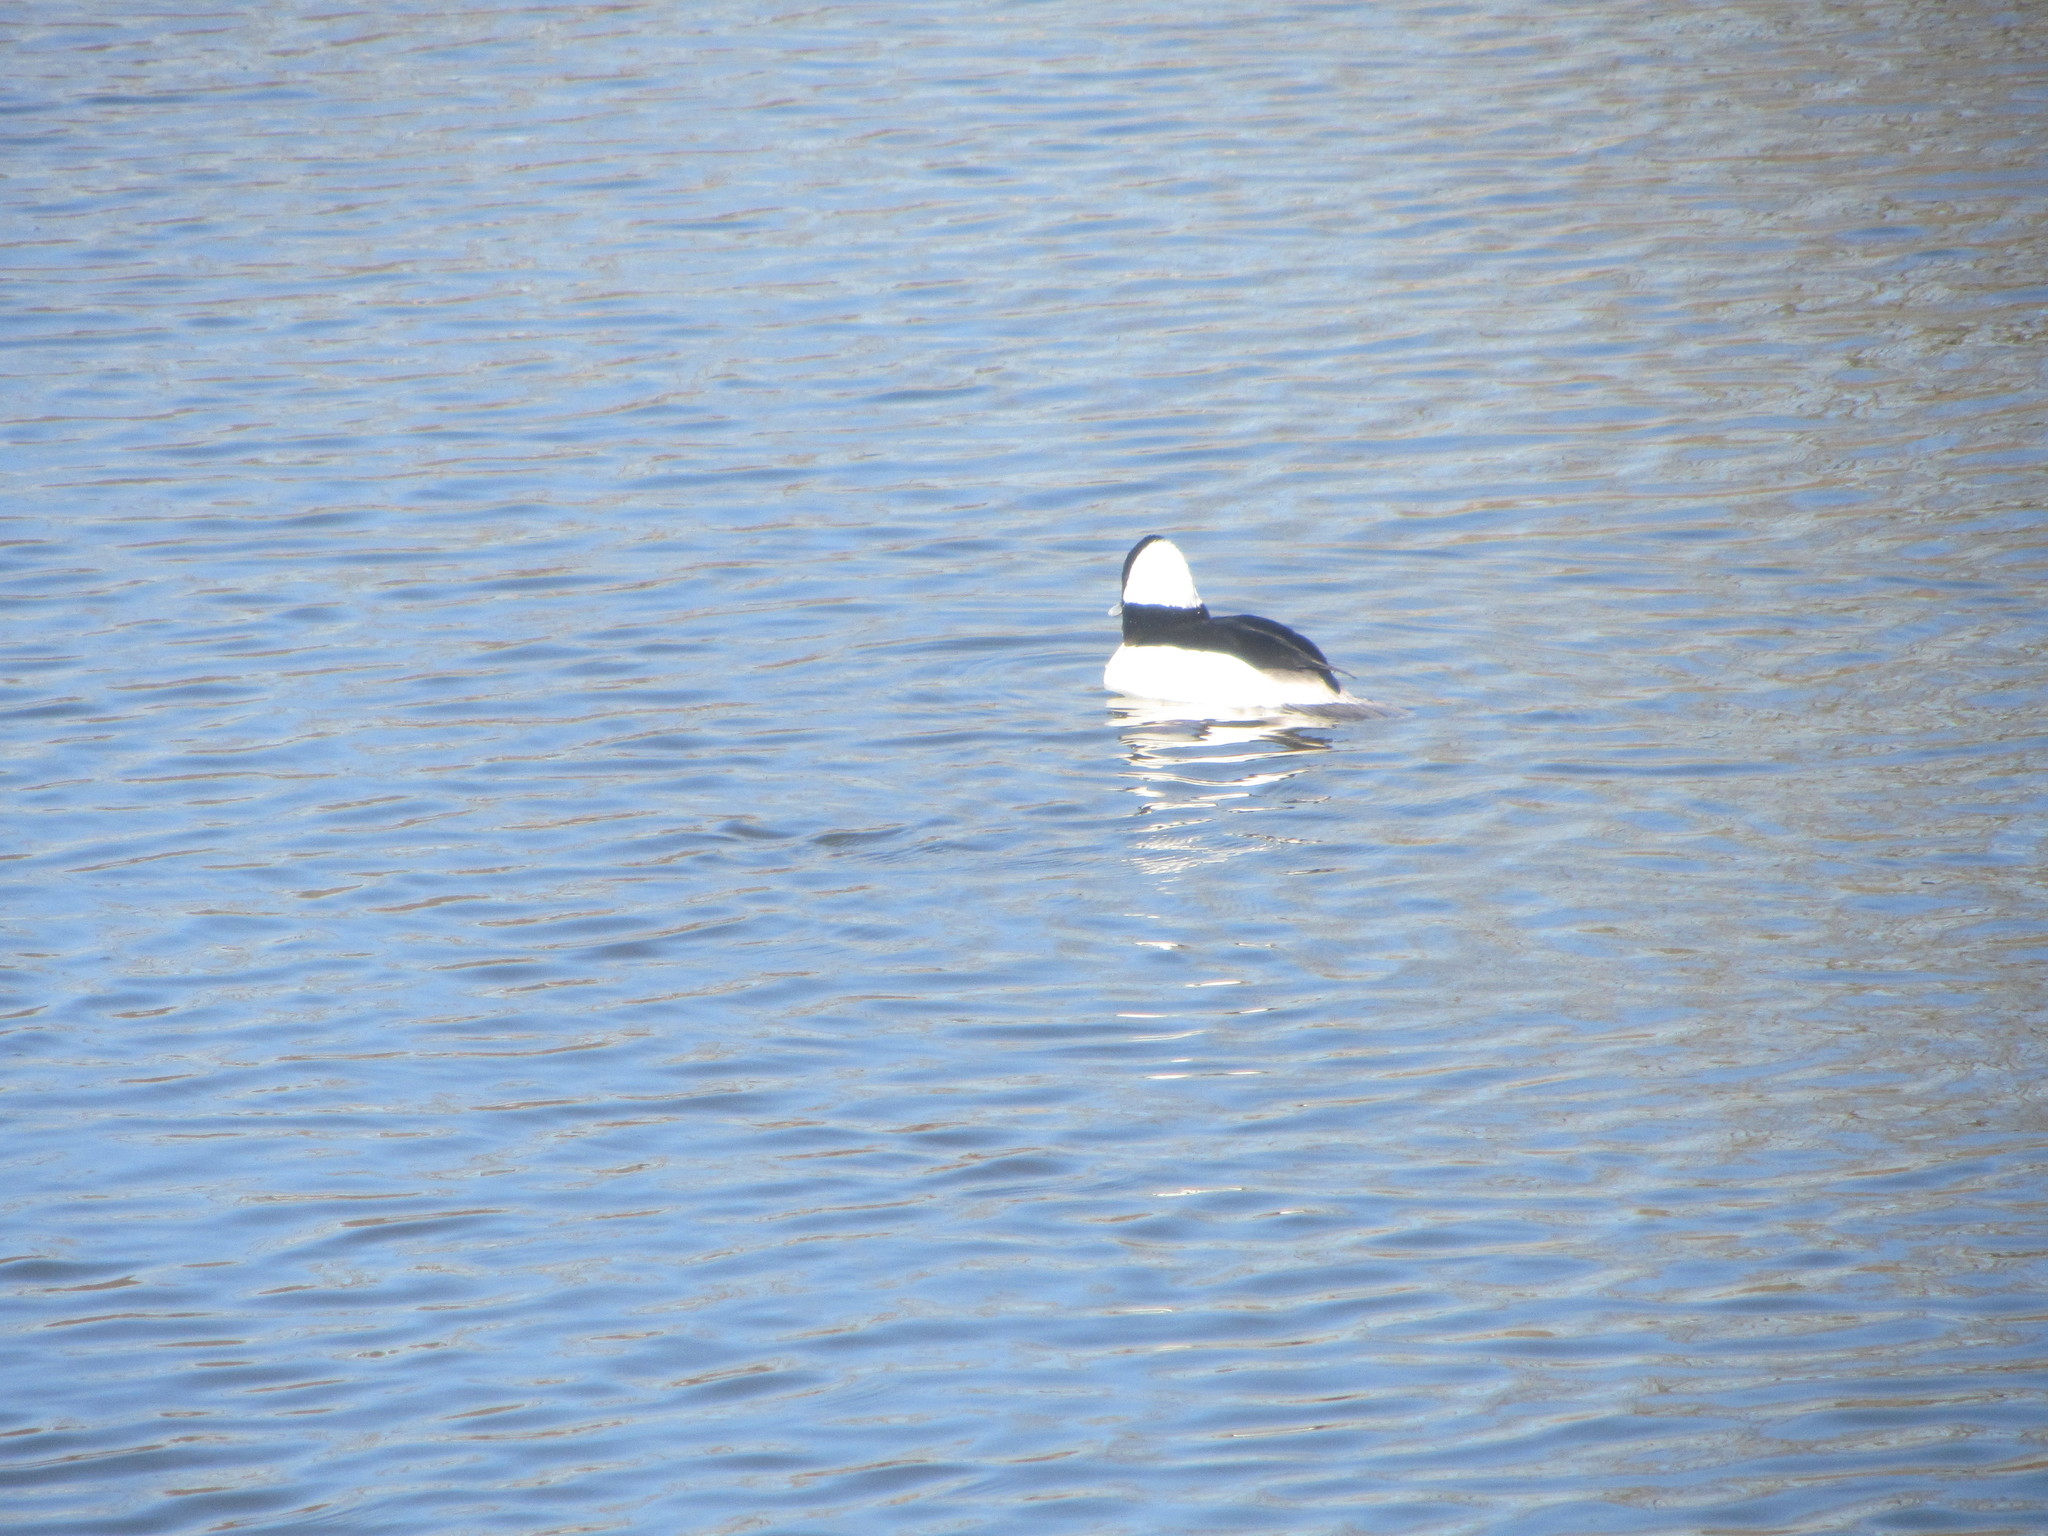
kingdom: Animalia
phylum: Chordata
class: Aves
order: Anseriformes
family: Anatidae
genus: Bucephala
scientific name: Bucephala albeola
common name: Bufflehead
